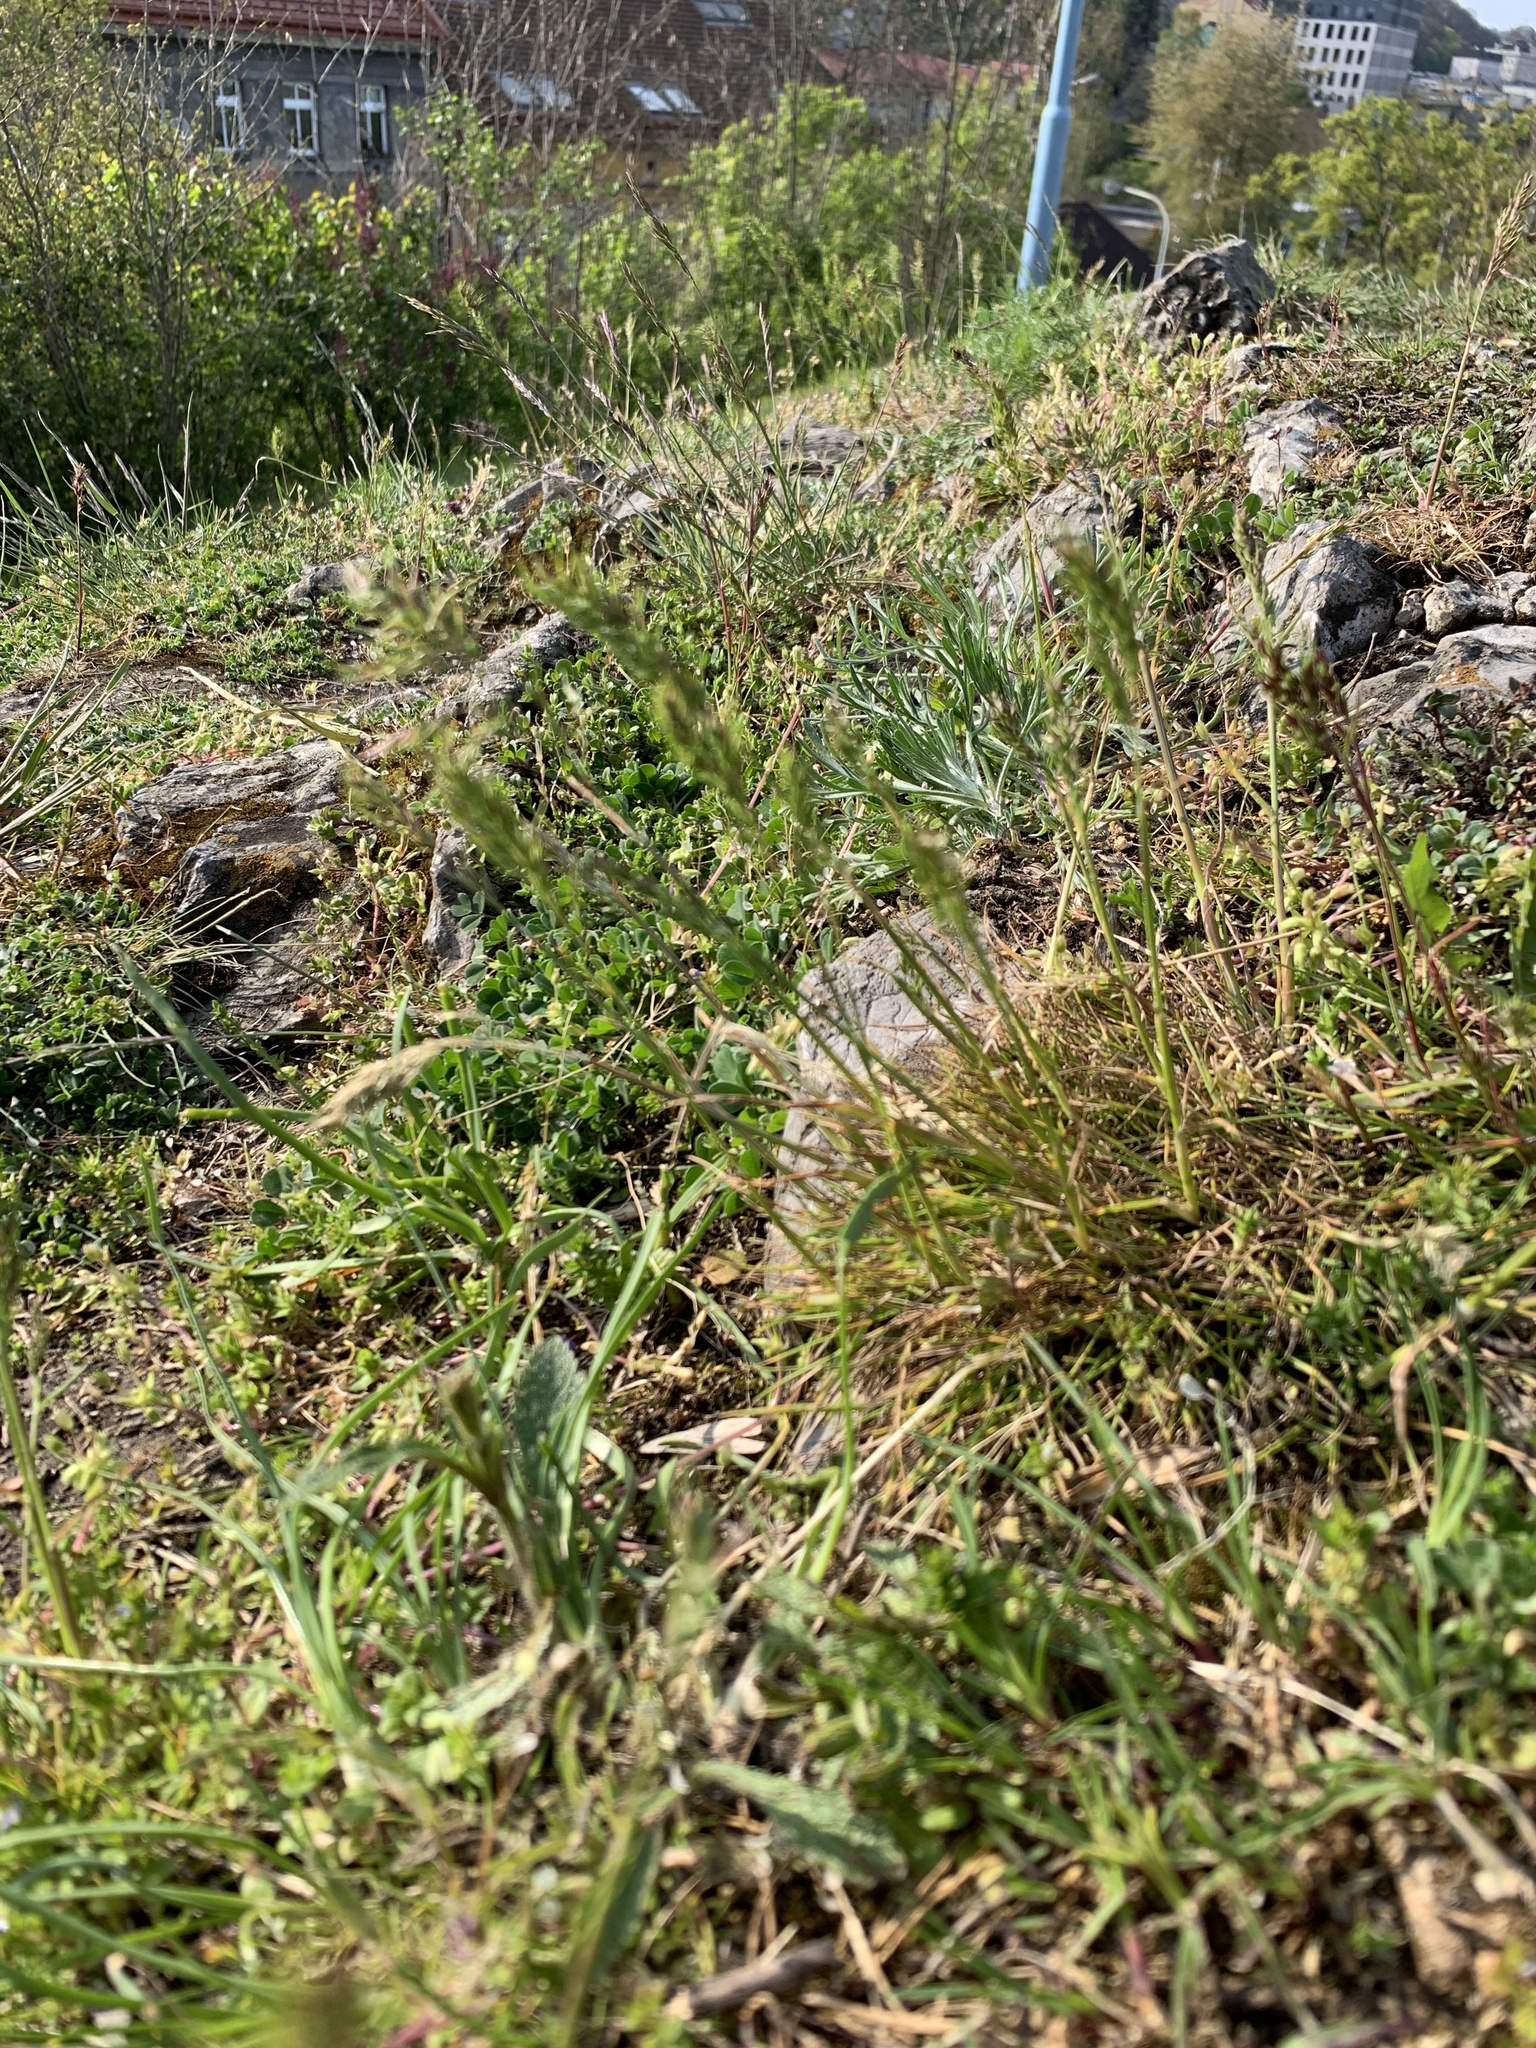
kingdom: Plantae
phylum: Tracheophyta
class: Liliopsida
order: Poales
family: Poaceae
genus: Poa
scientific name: Poa bulbosa
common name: Bulbous bluegrass
